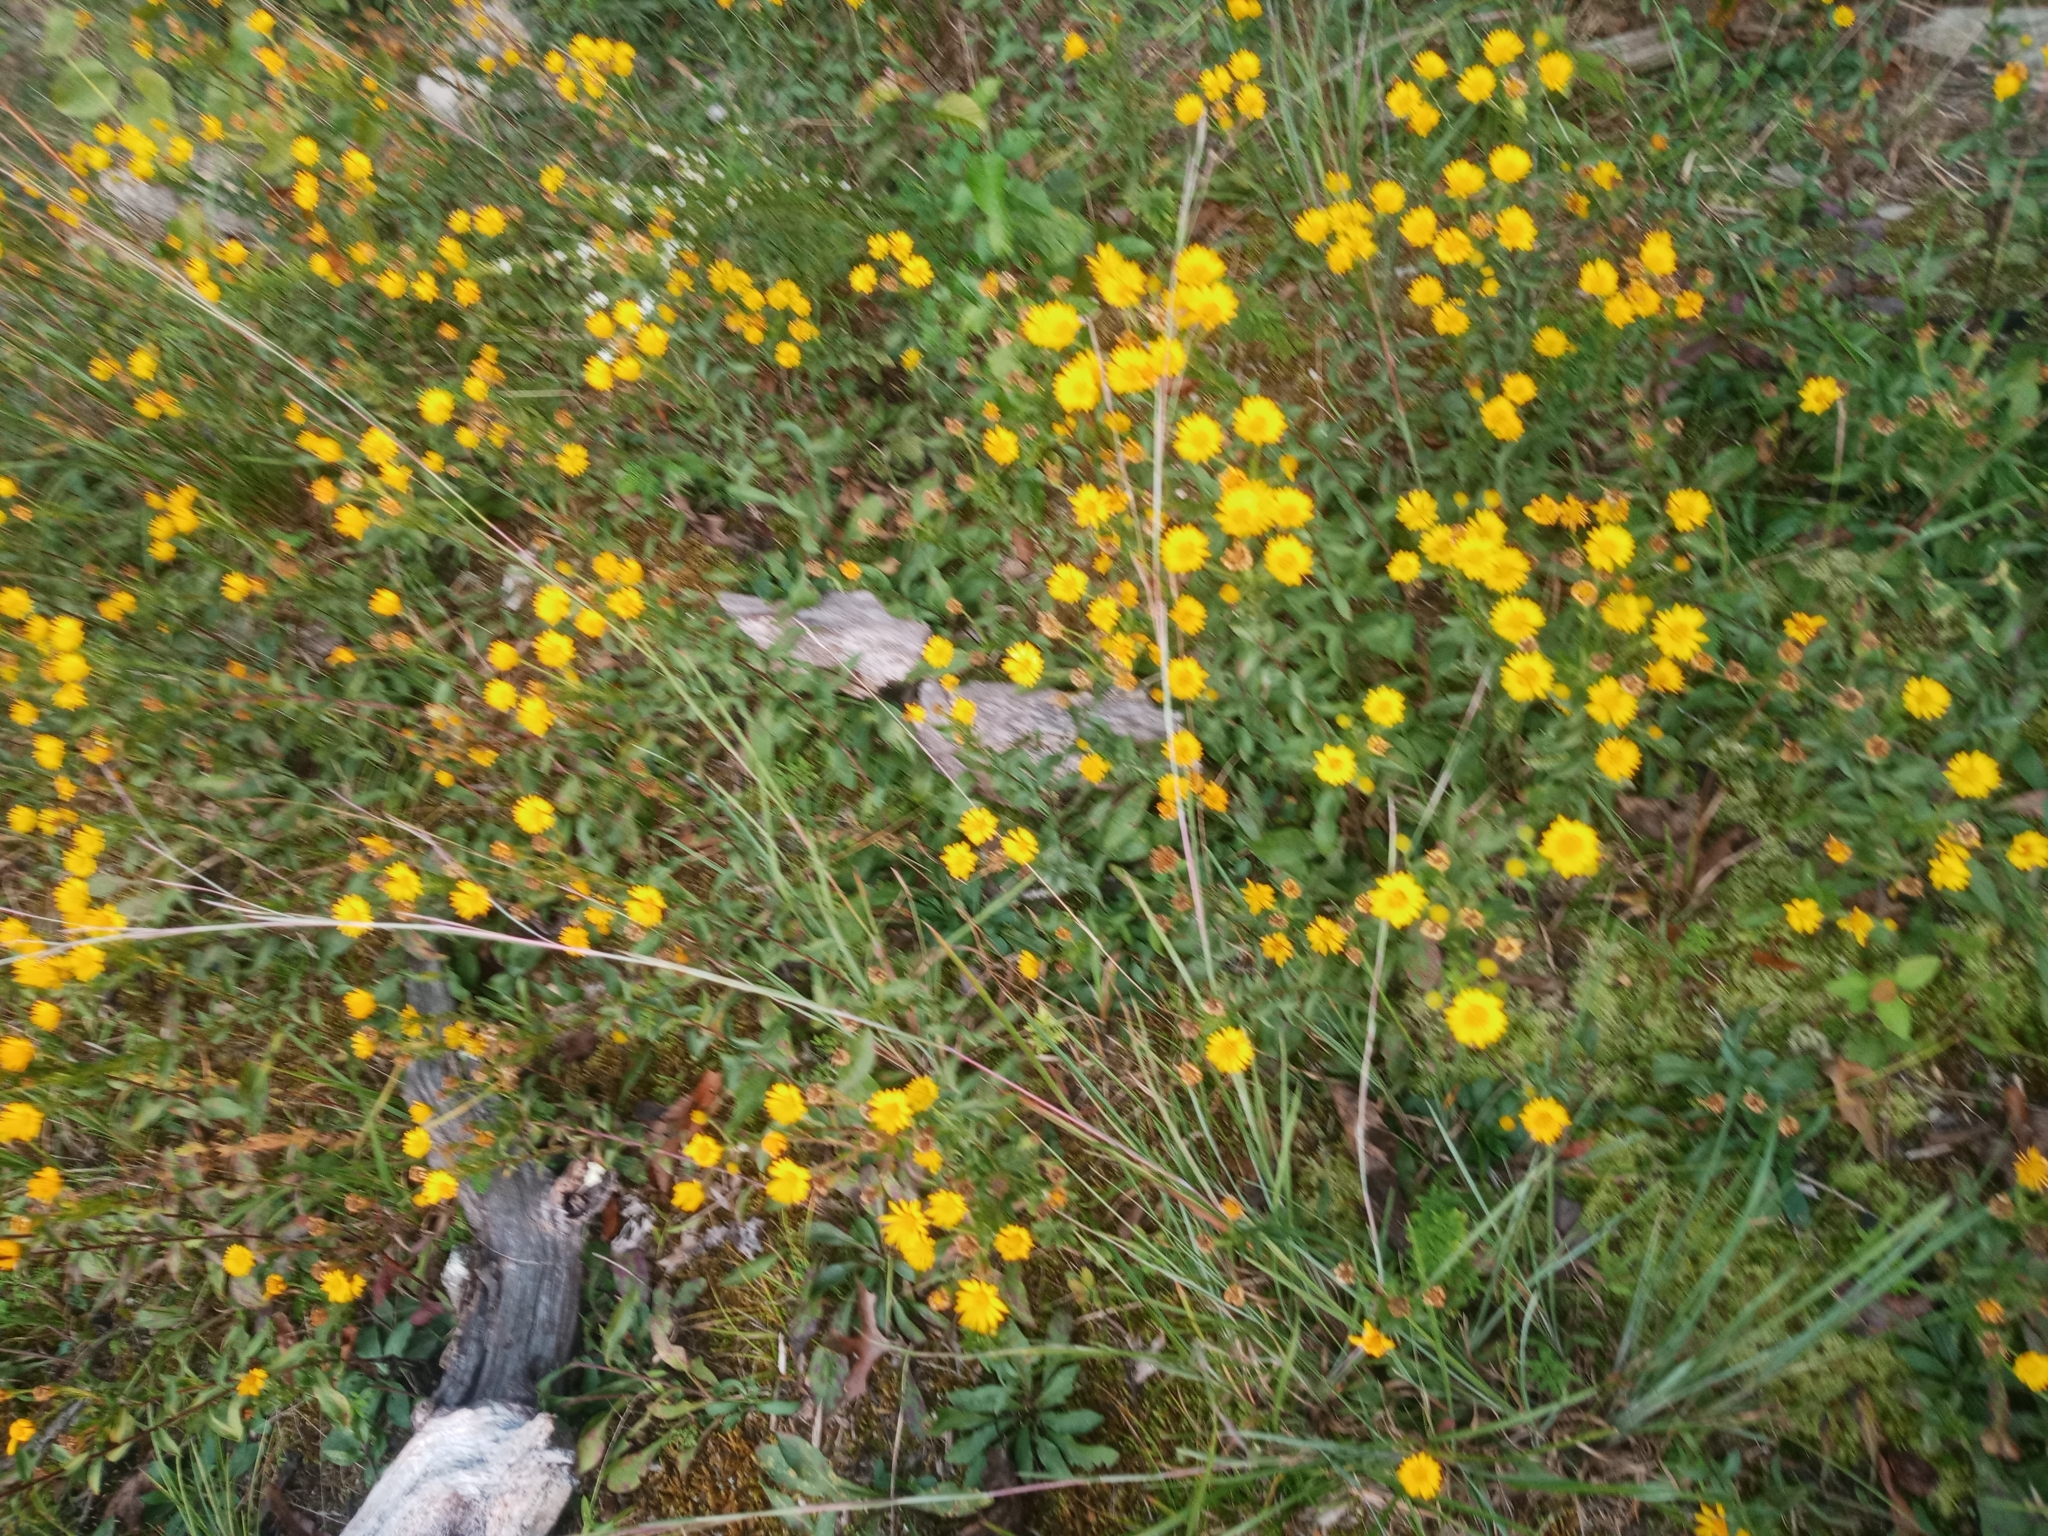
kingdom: Plantae
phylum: Tracheophyta
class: Magnoliopsida
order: Asterales
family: Asteraceae
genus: Chrysopsis
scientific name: Chrysopsis mariana
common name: Maryland golden-aster
